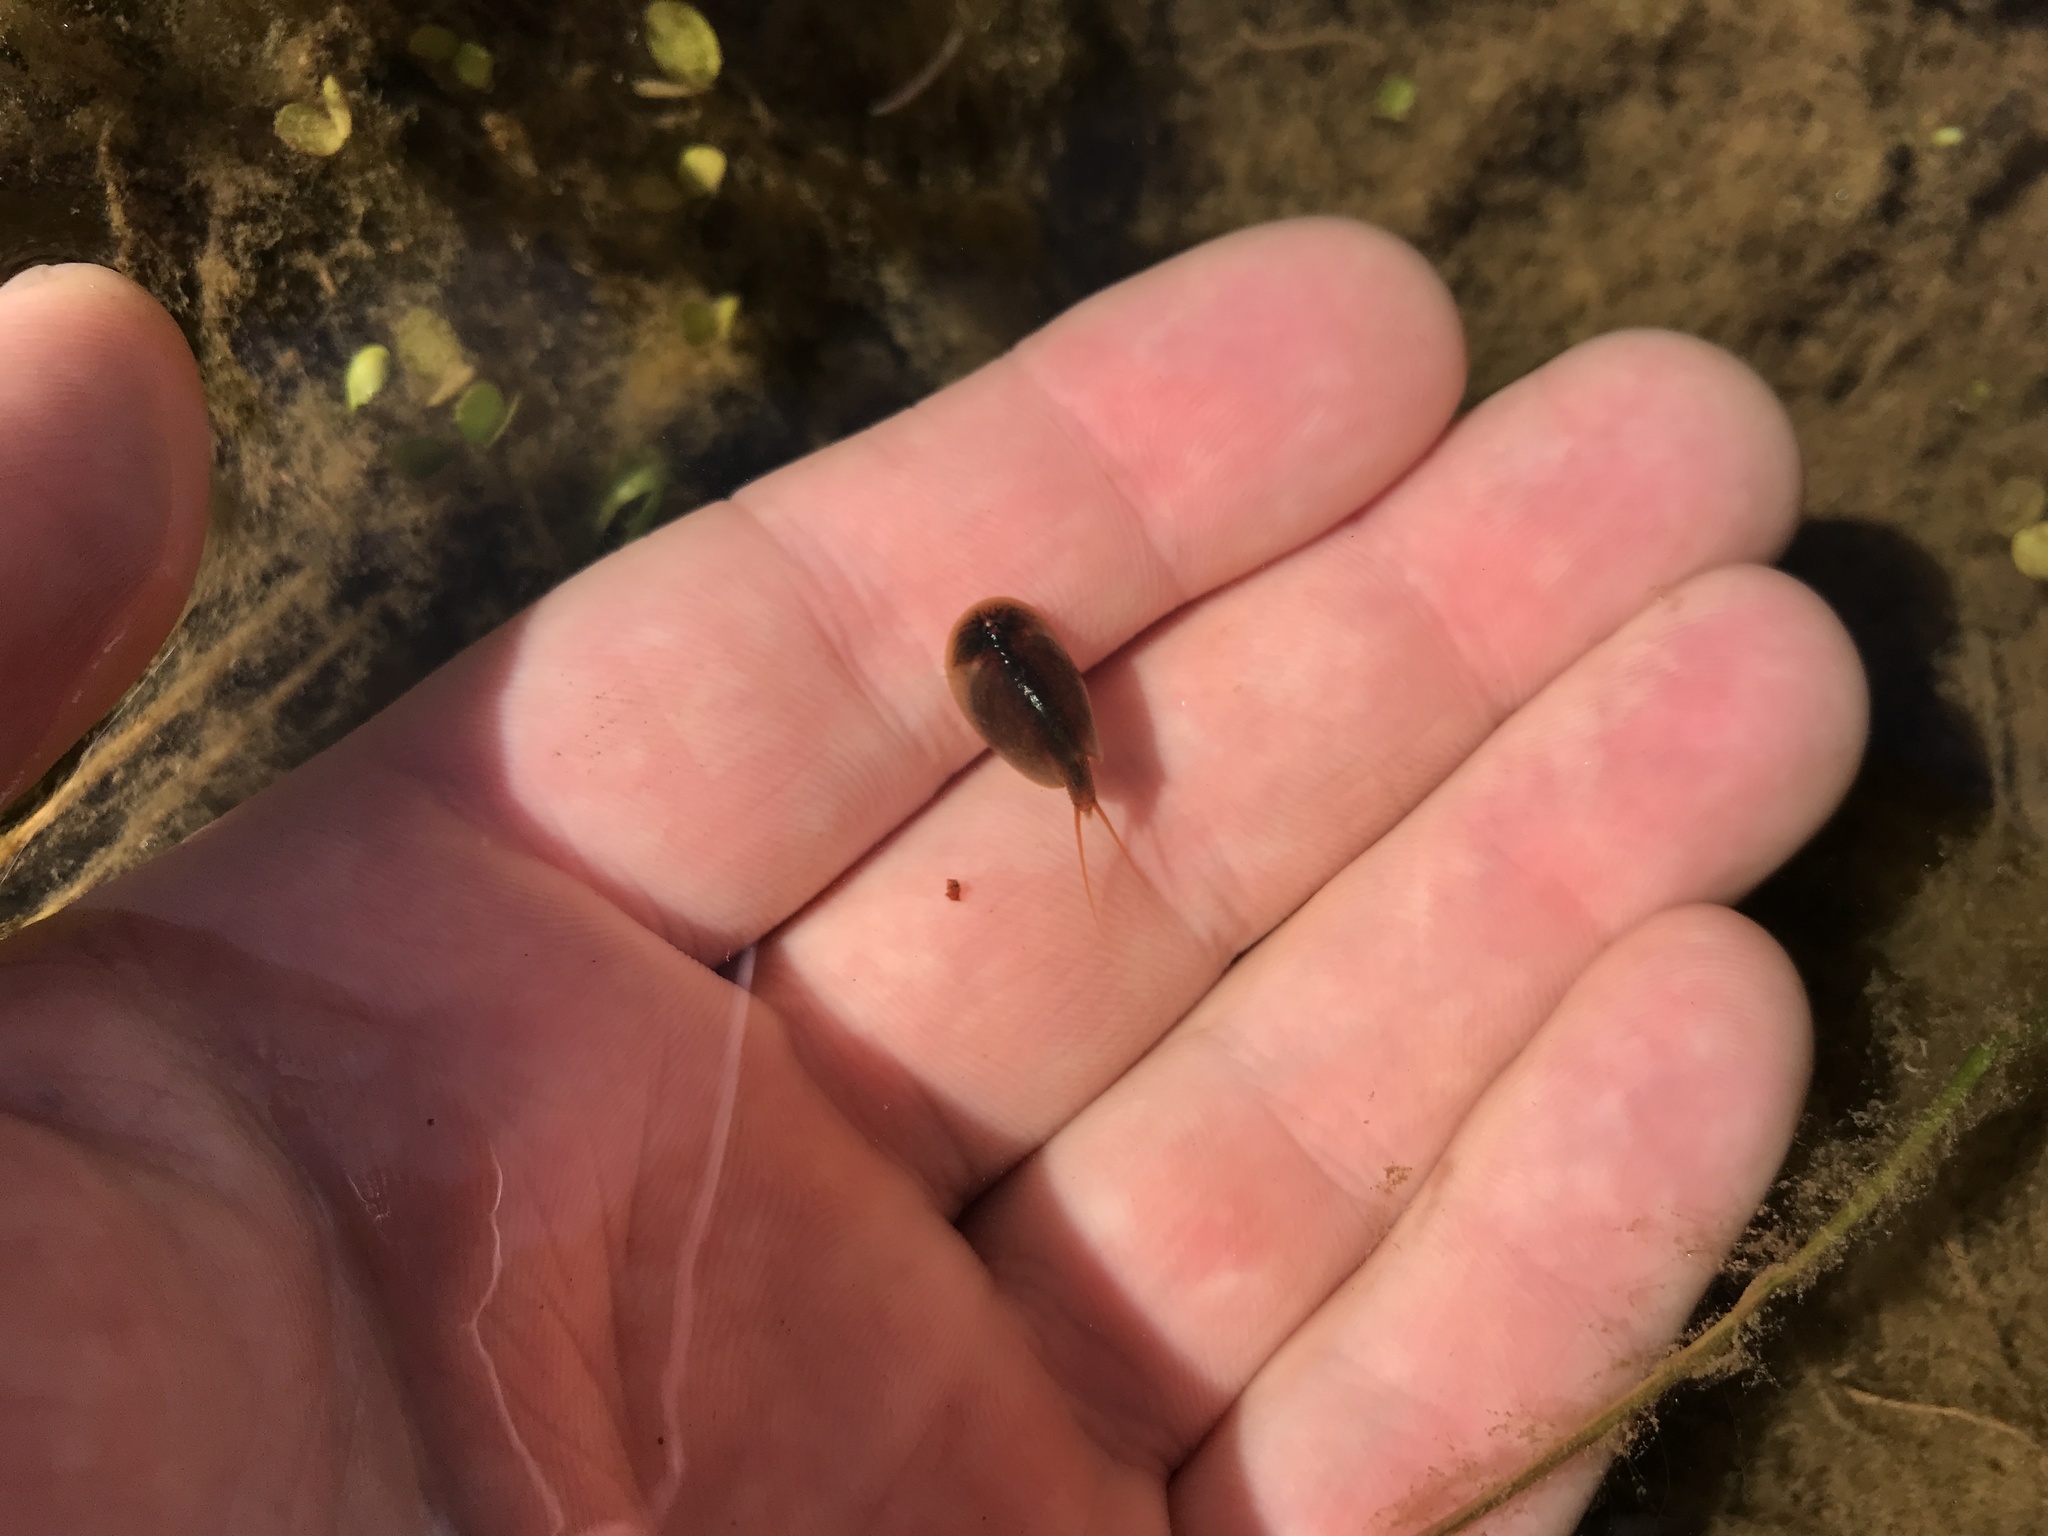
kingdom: Animalia
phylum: Arthropoda
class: Branchiopoda
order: Notostraca
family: Triopsidae
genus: Lepidurus
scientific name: Lepidurus apus
